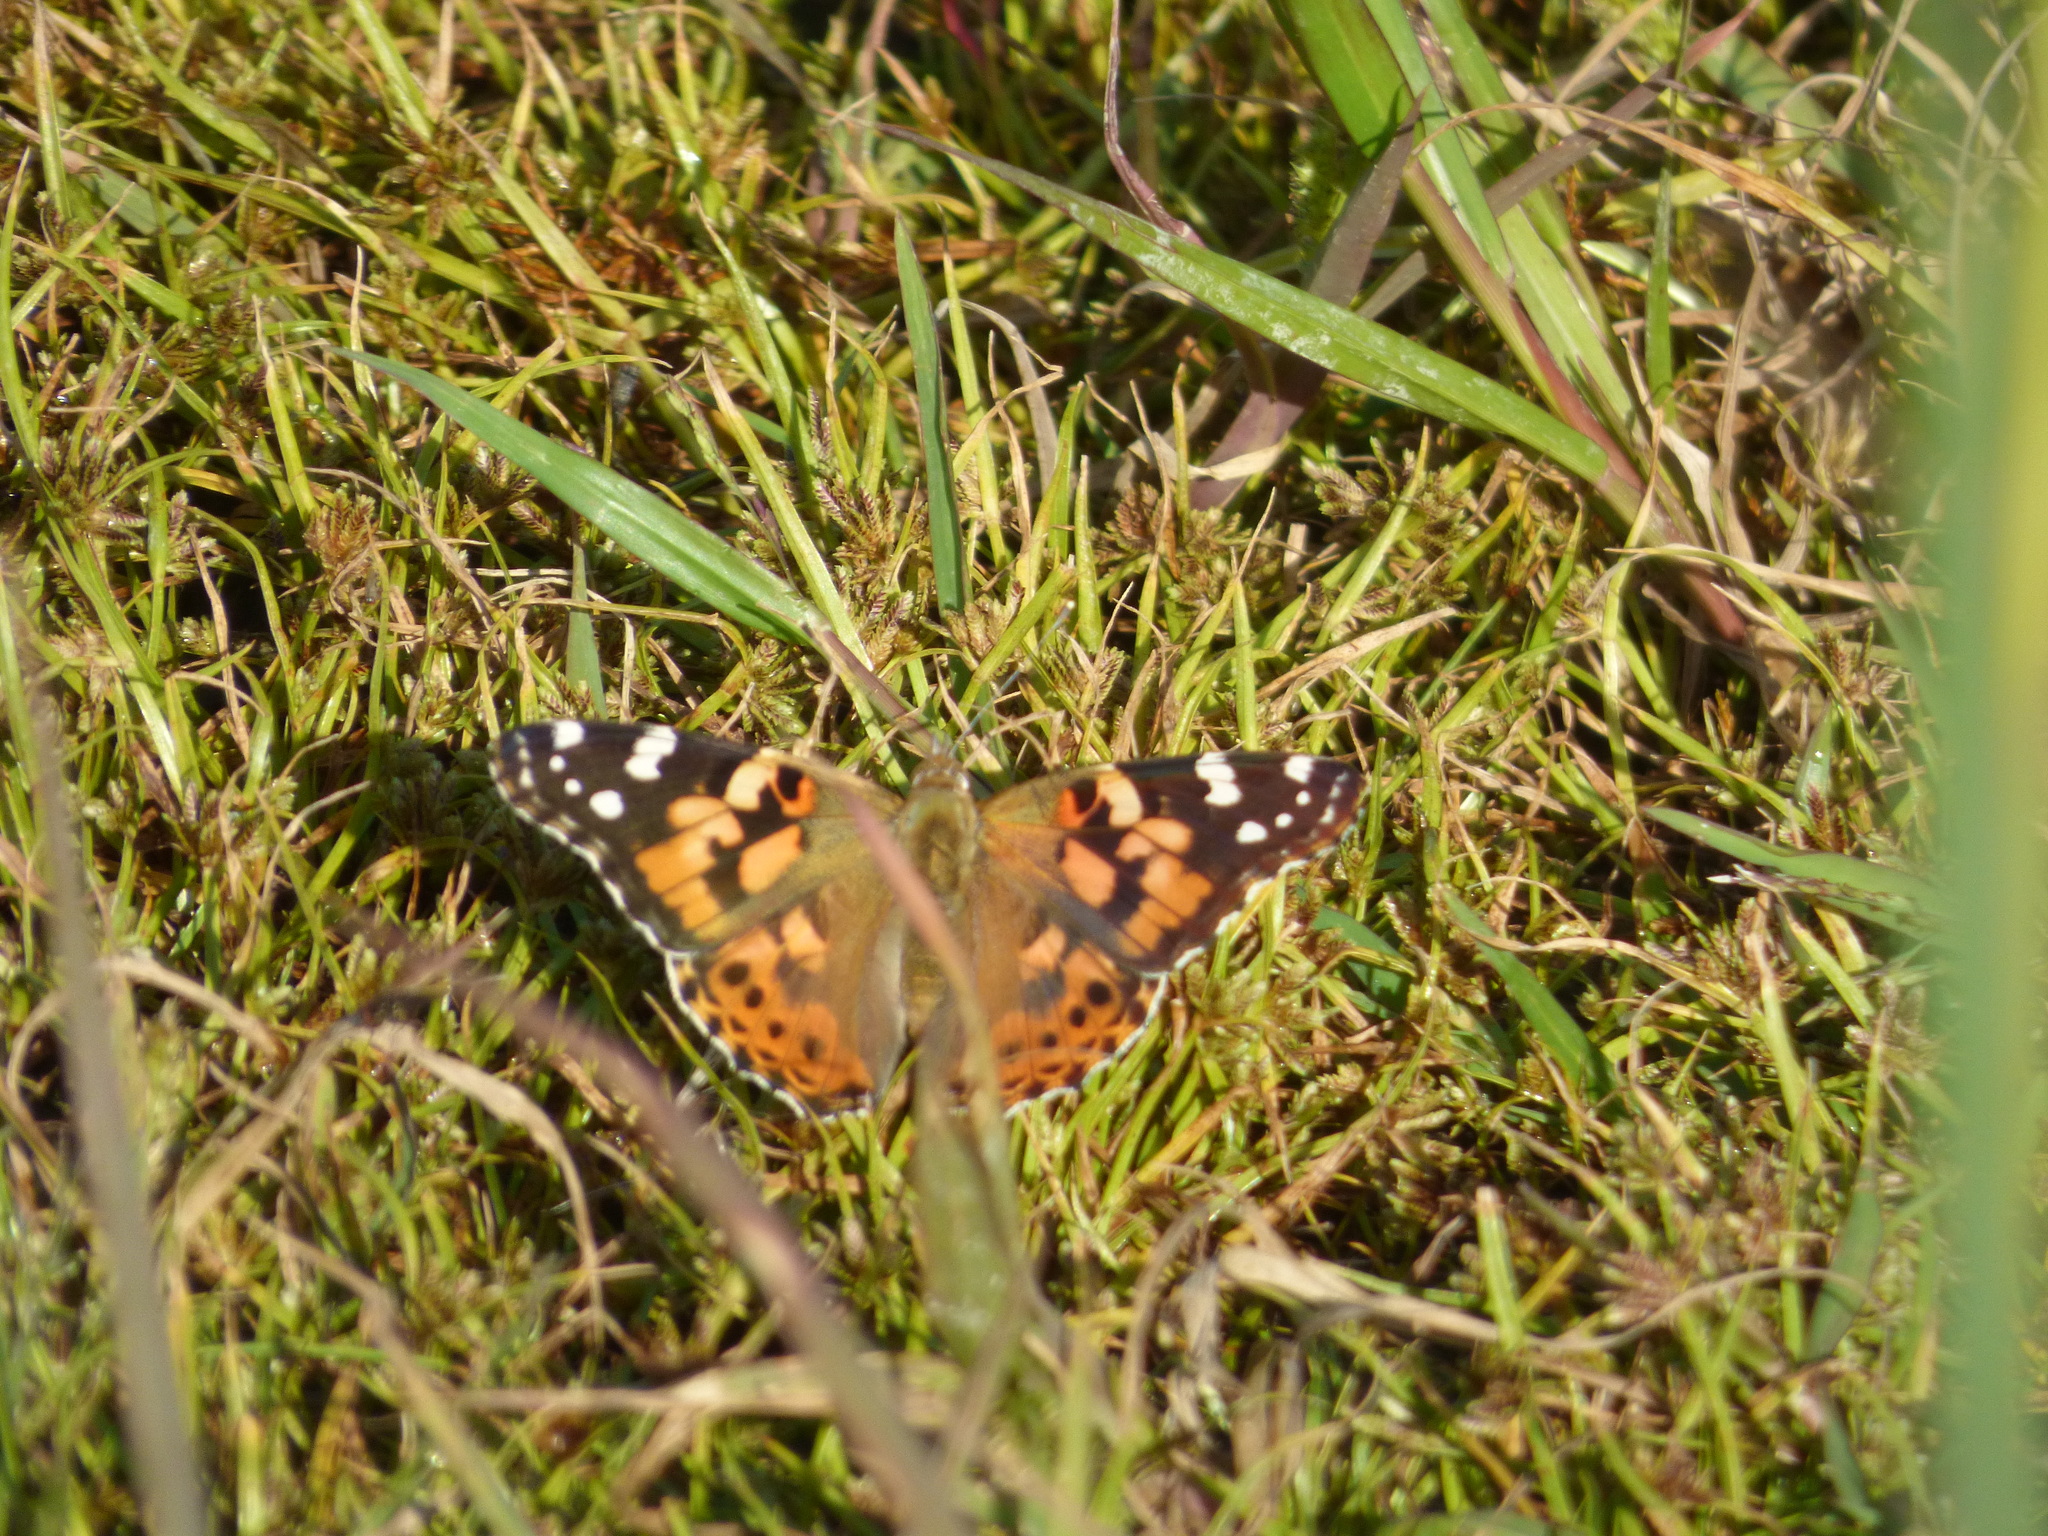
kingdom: Animalia
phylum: Arthropoda
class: Insecta
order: Lepidoptera
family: Nymphalidae
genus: Vanessa
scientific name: Vanessa cardui
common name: Painted lady
